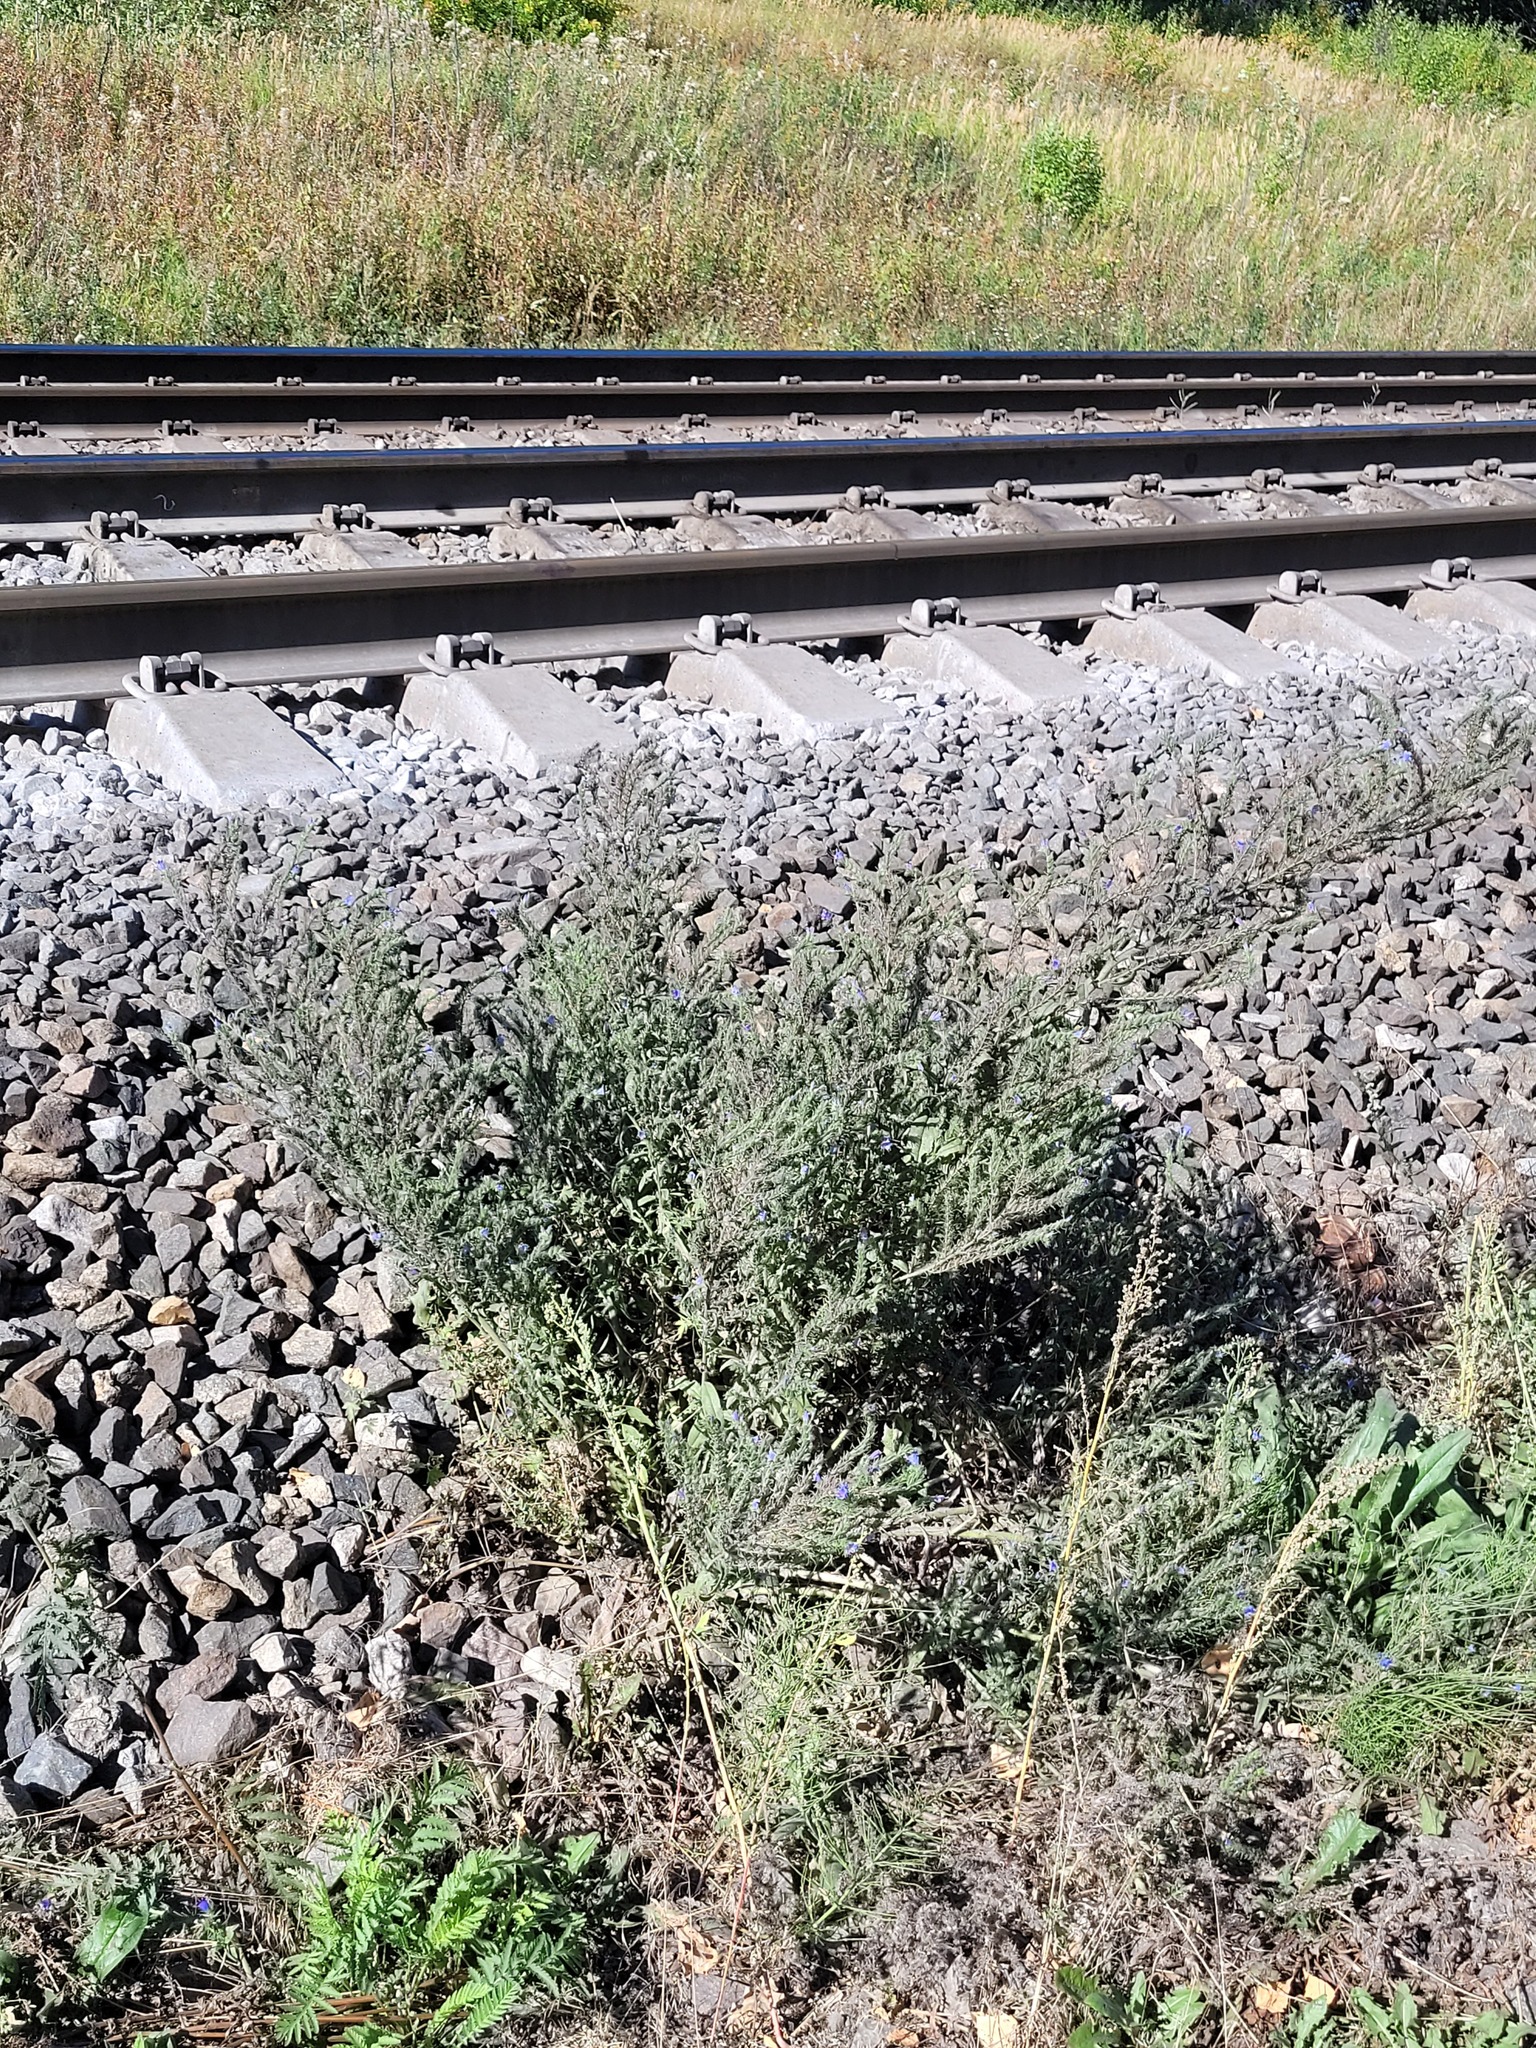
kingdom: Plantae
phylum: Tracheophyta
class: Magnoliopsida
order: Boraginales
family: Boraginaceae
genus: Echium
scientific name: Echium vulgare
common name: Common viper's bugloss
